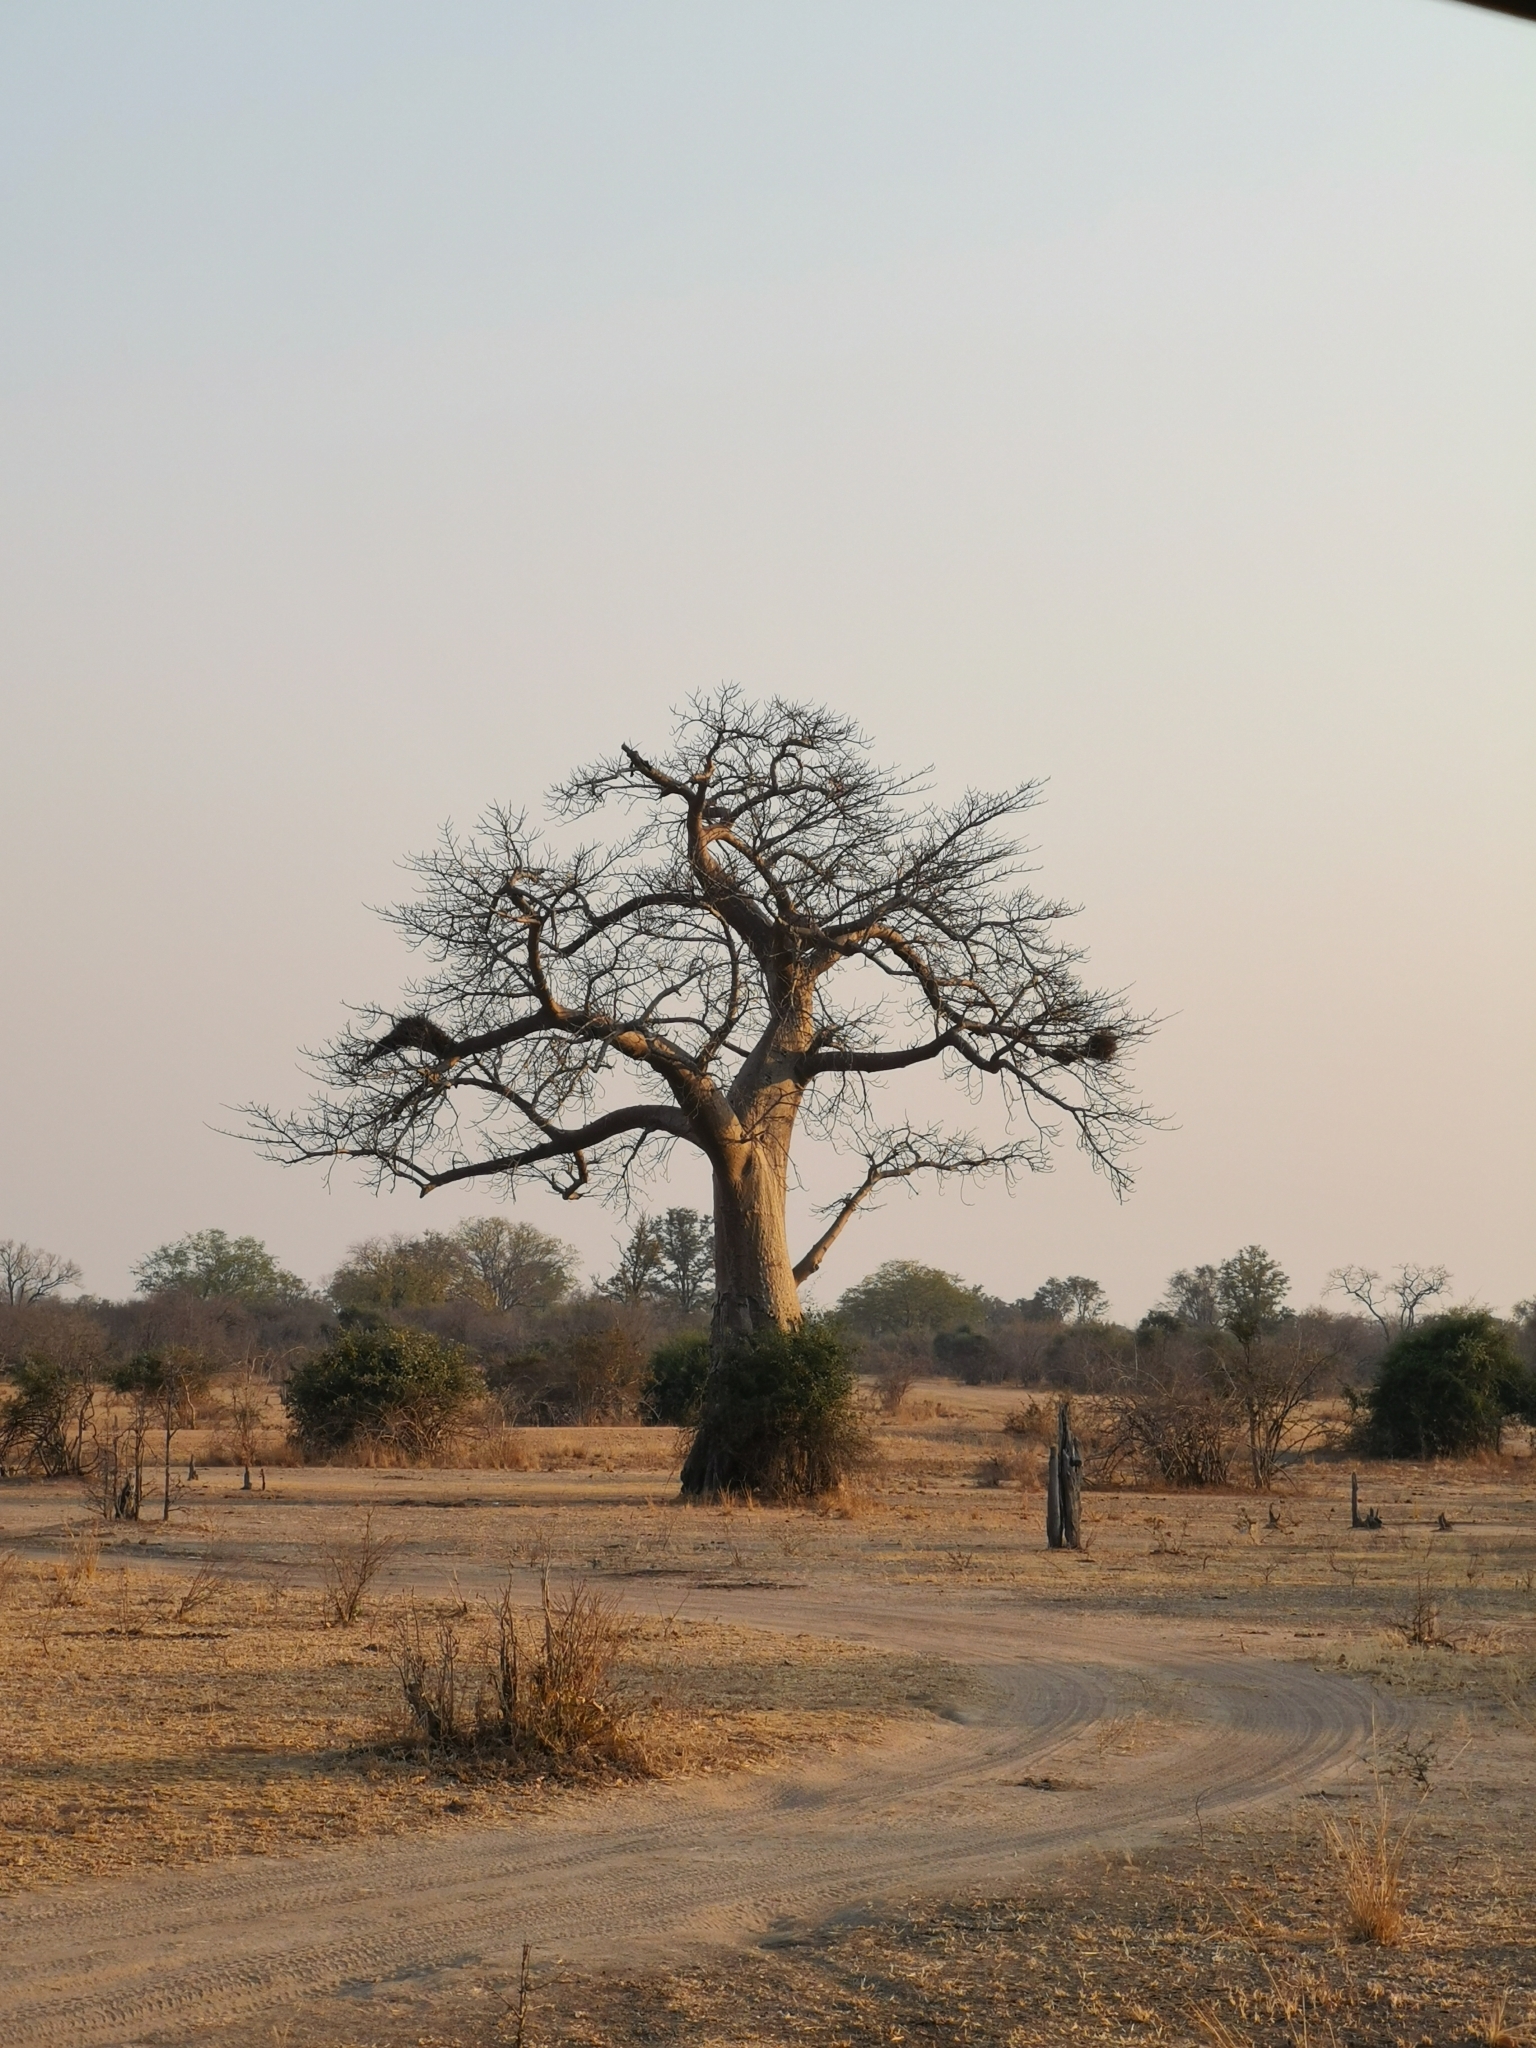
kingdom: Plantae
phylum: Tracheophyta
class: Magnoliopsida
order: Malvales
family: Malvaceae
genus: Adansonia
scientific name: Adansonia digitata
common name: Dead-rat-tree
